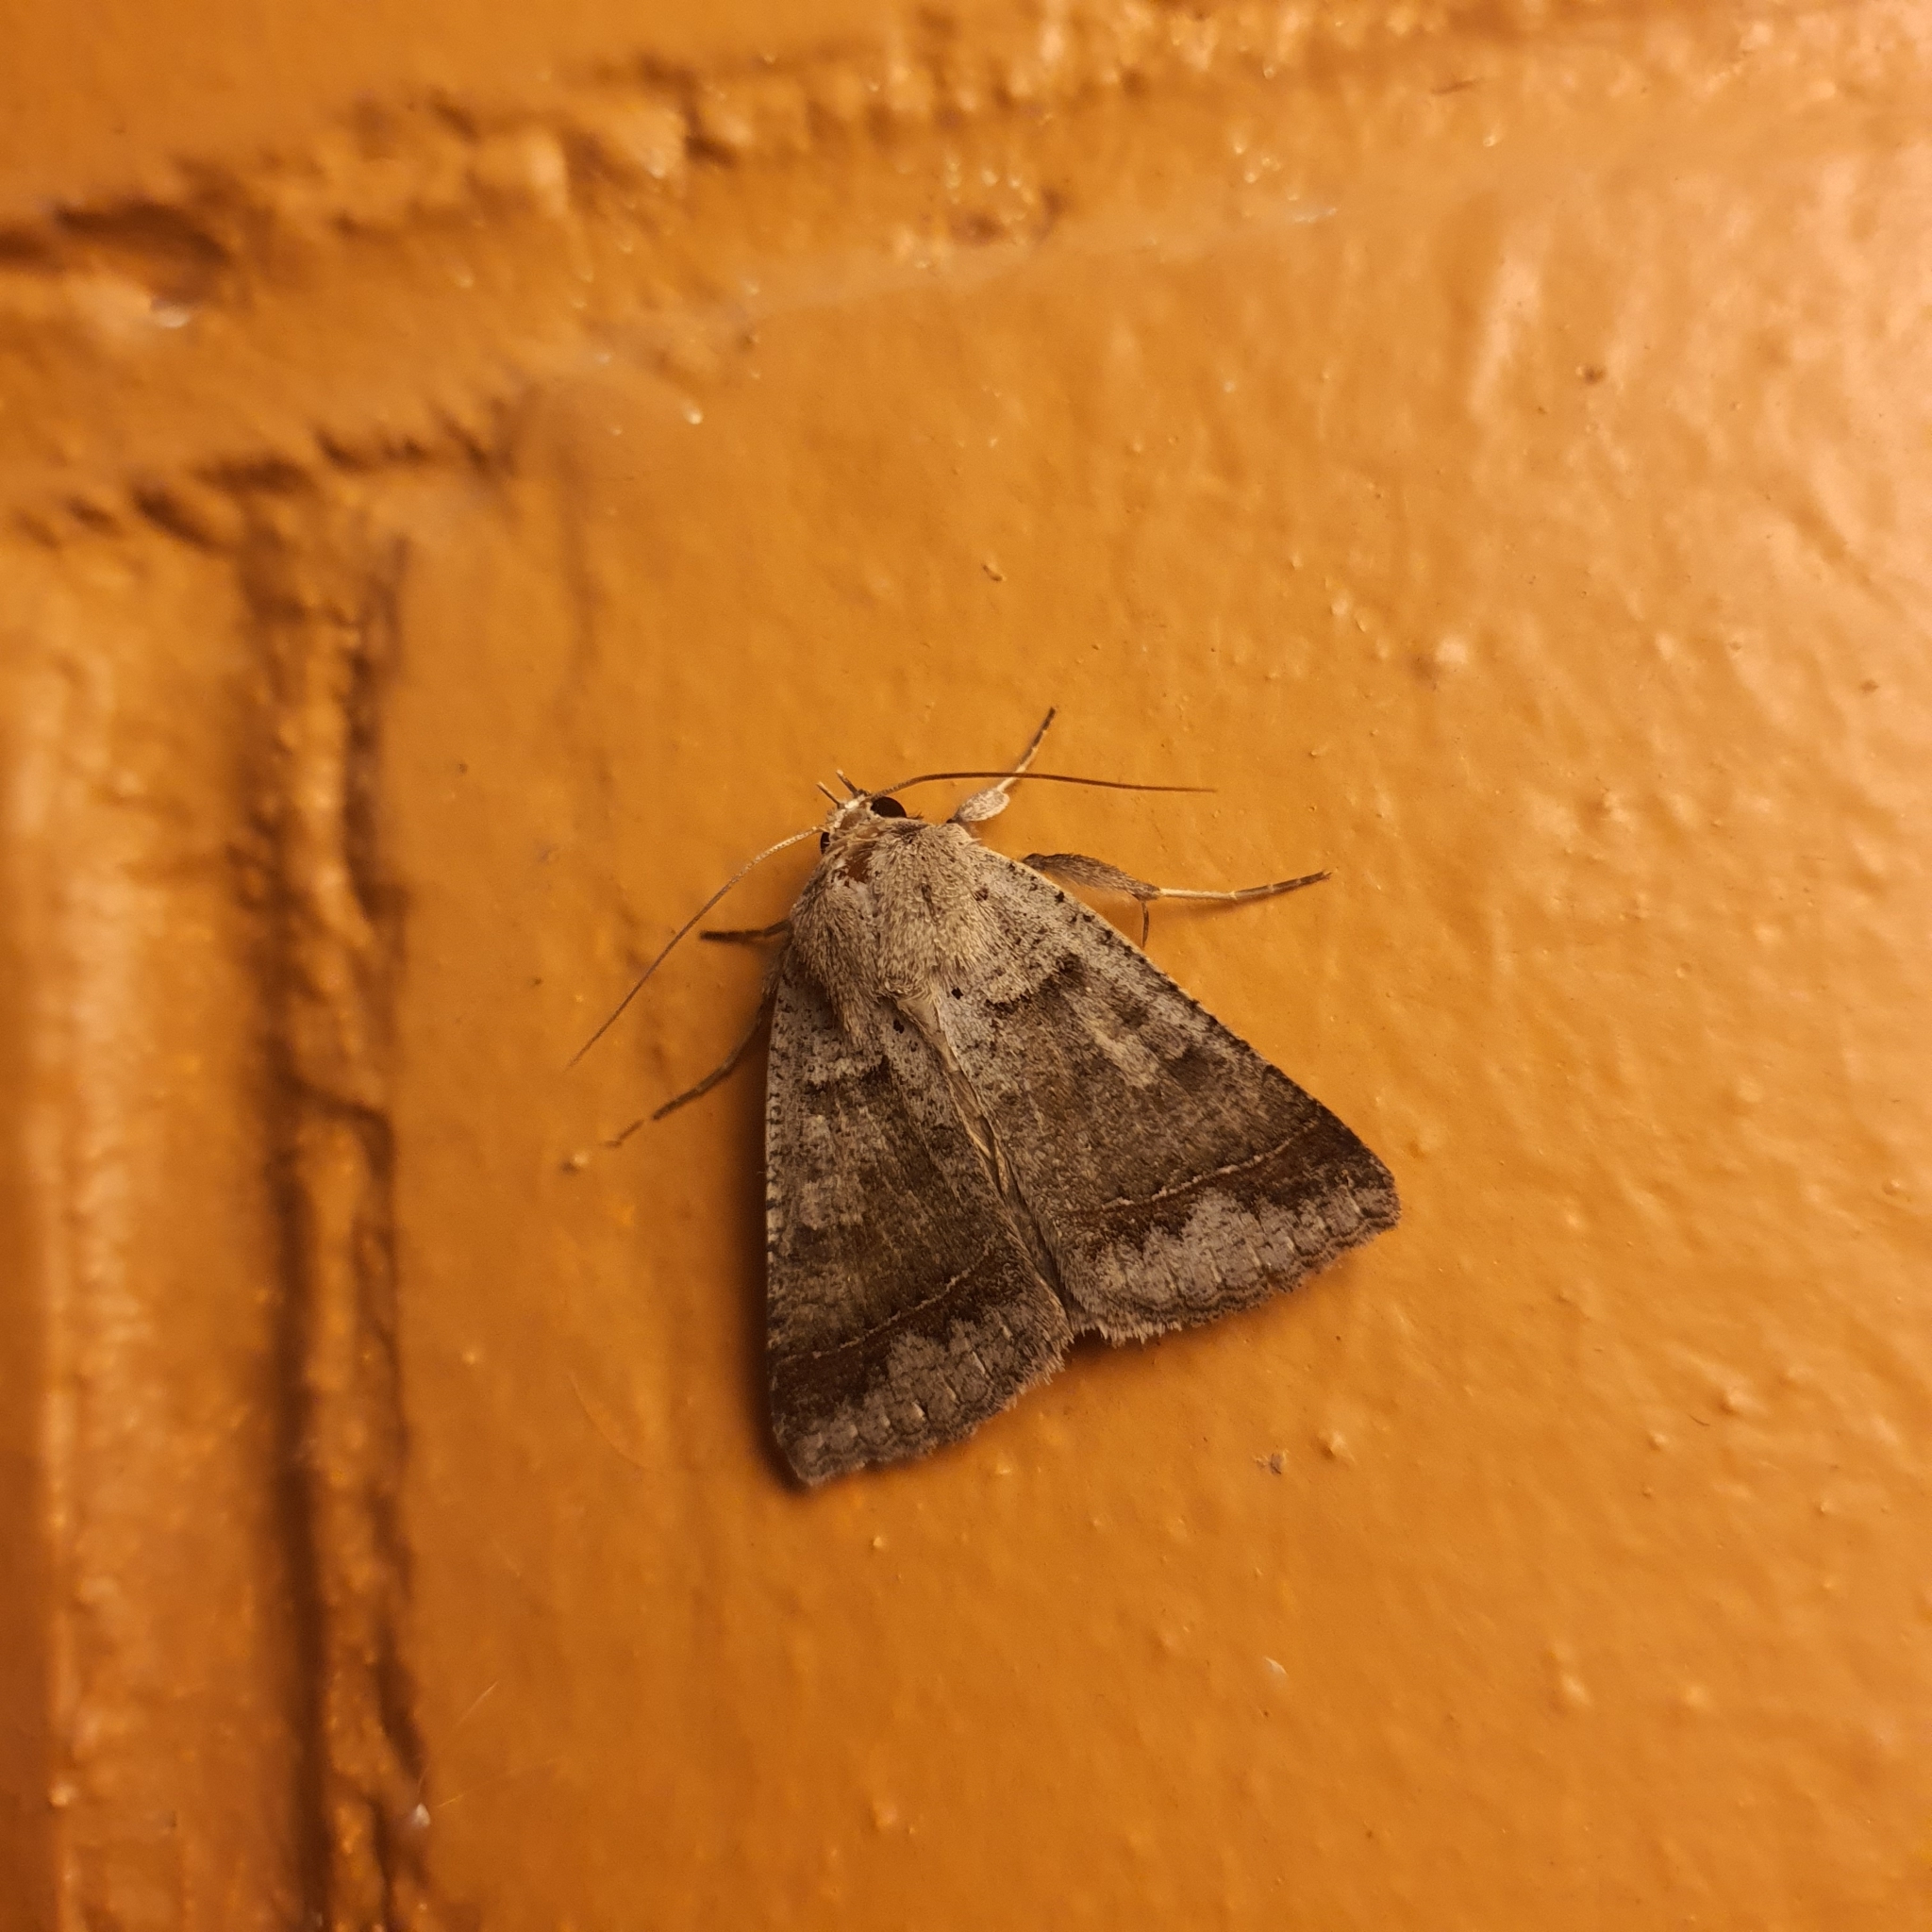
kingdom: Animalia
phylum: Arthropoda
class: Insecta
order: Lepidoptera
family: Erebidae
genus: Pantydia
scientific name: Pantydia sparsa
